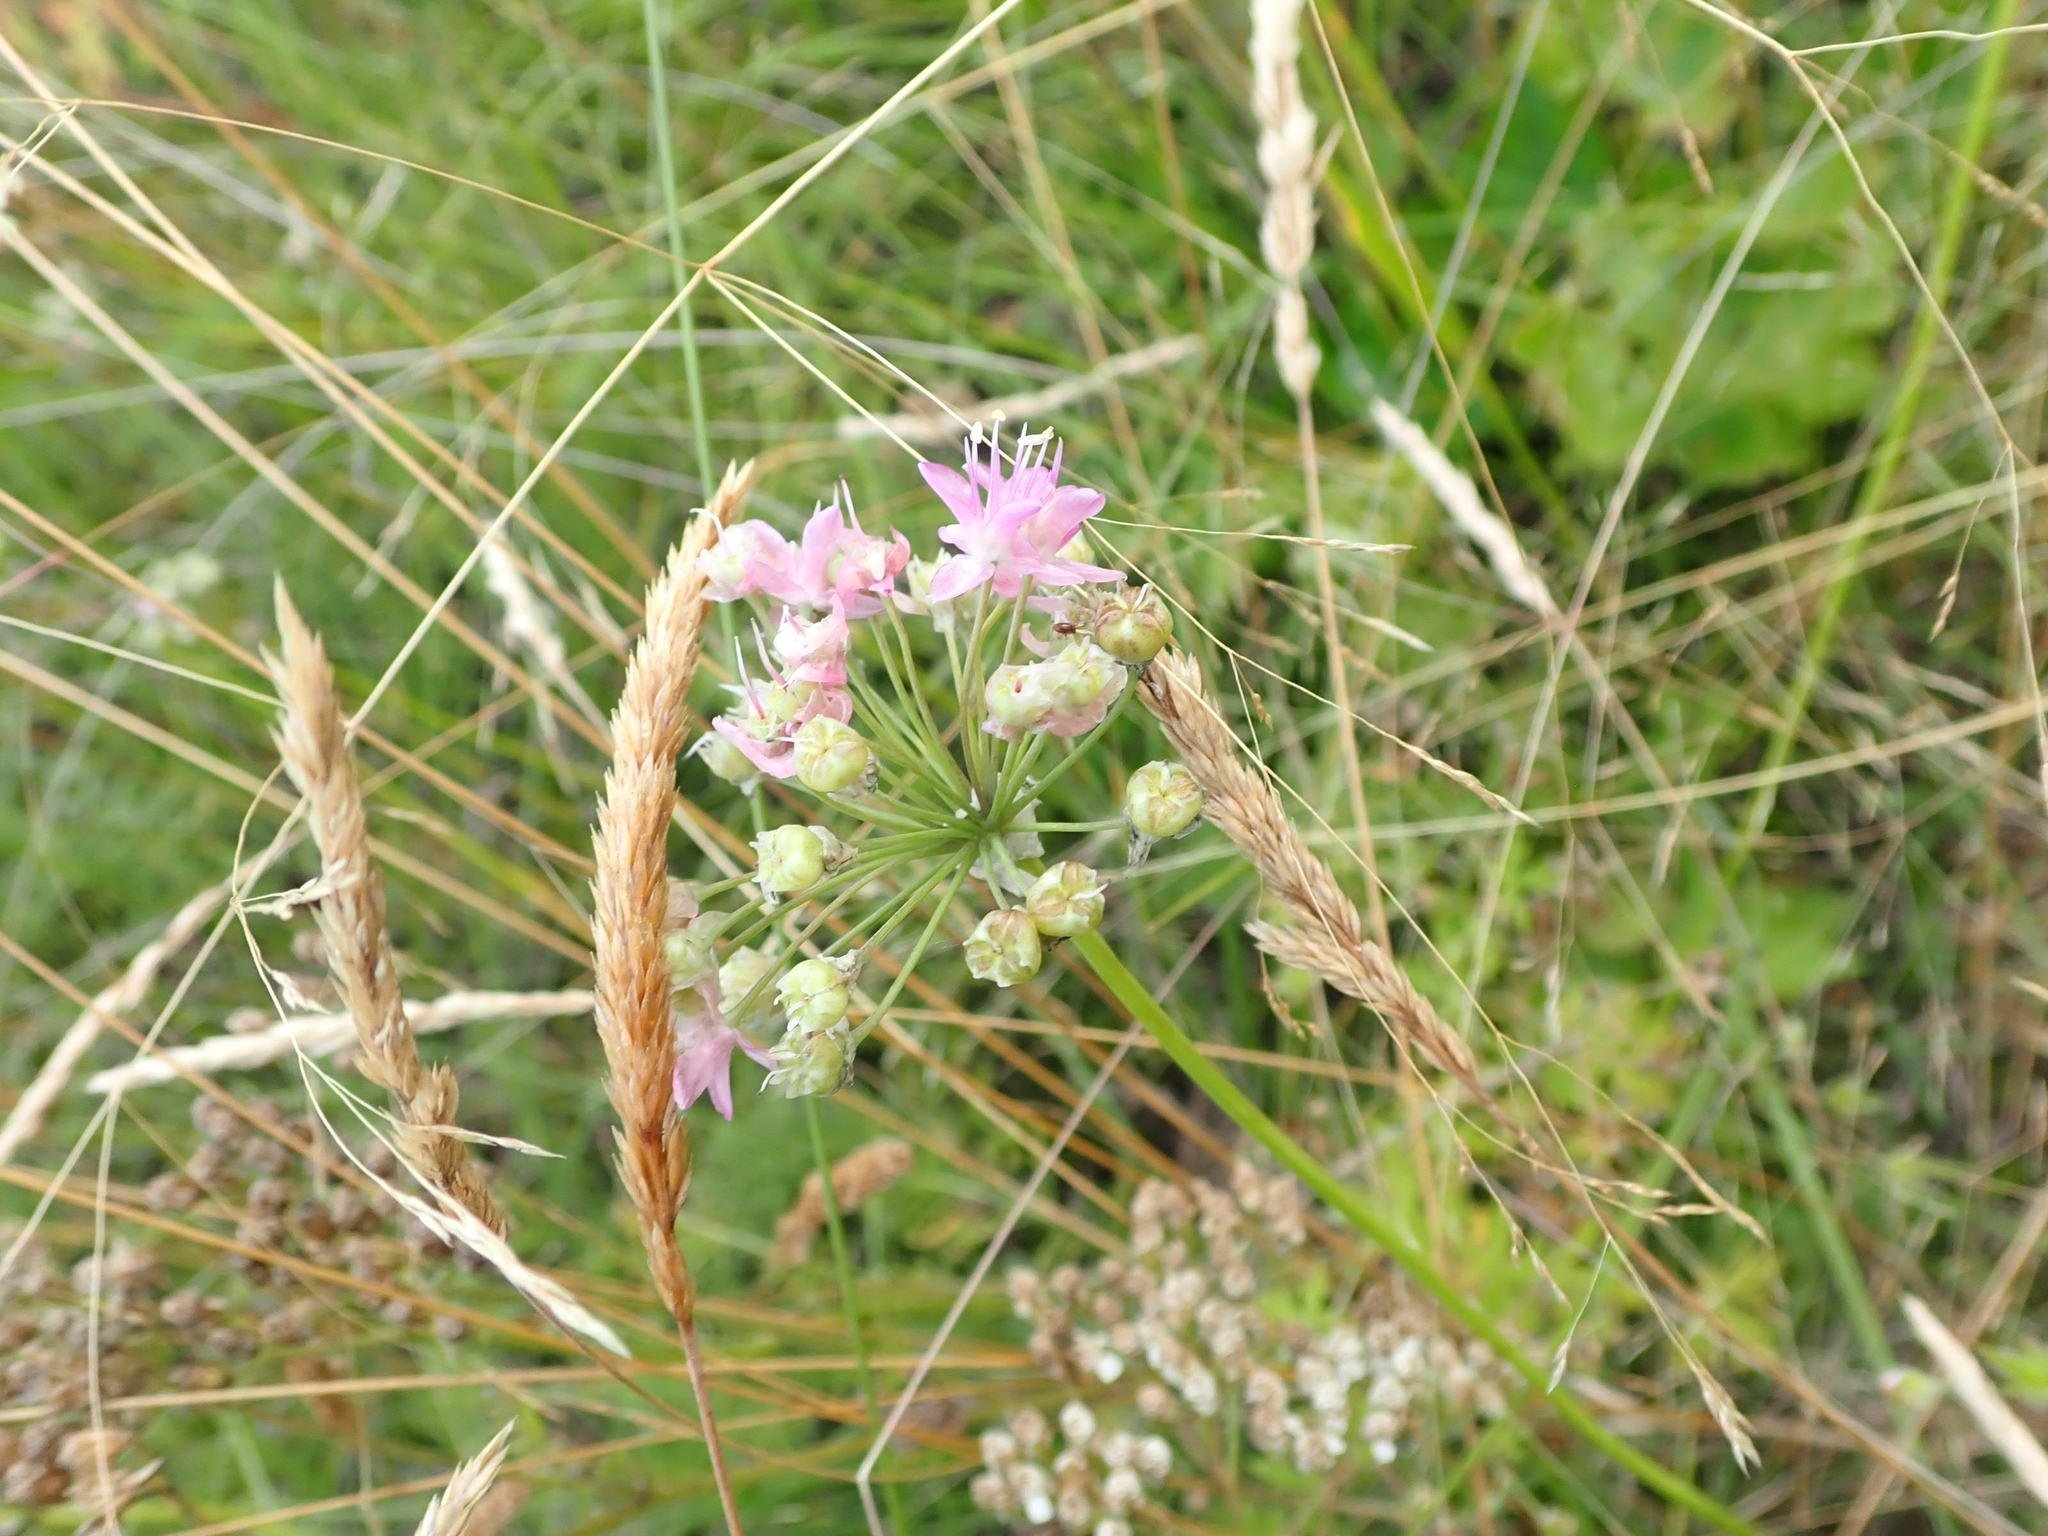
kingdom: Plantae
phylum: Tracheophyta
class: Liliopsida
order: Asparagales
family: Amaryllidaceae
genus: Allium
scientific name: Allium stellatum
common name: Autumn onion
